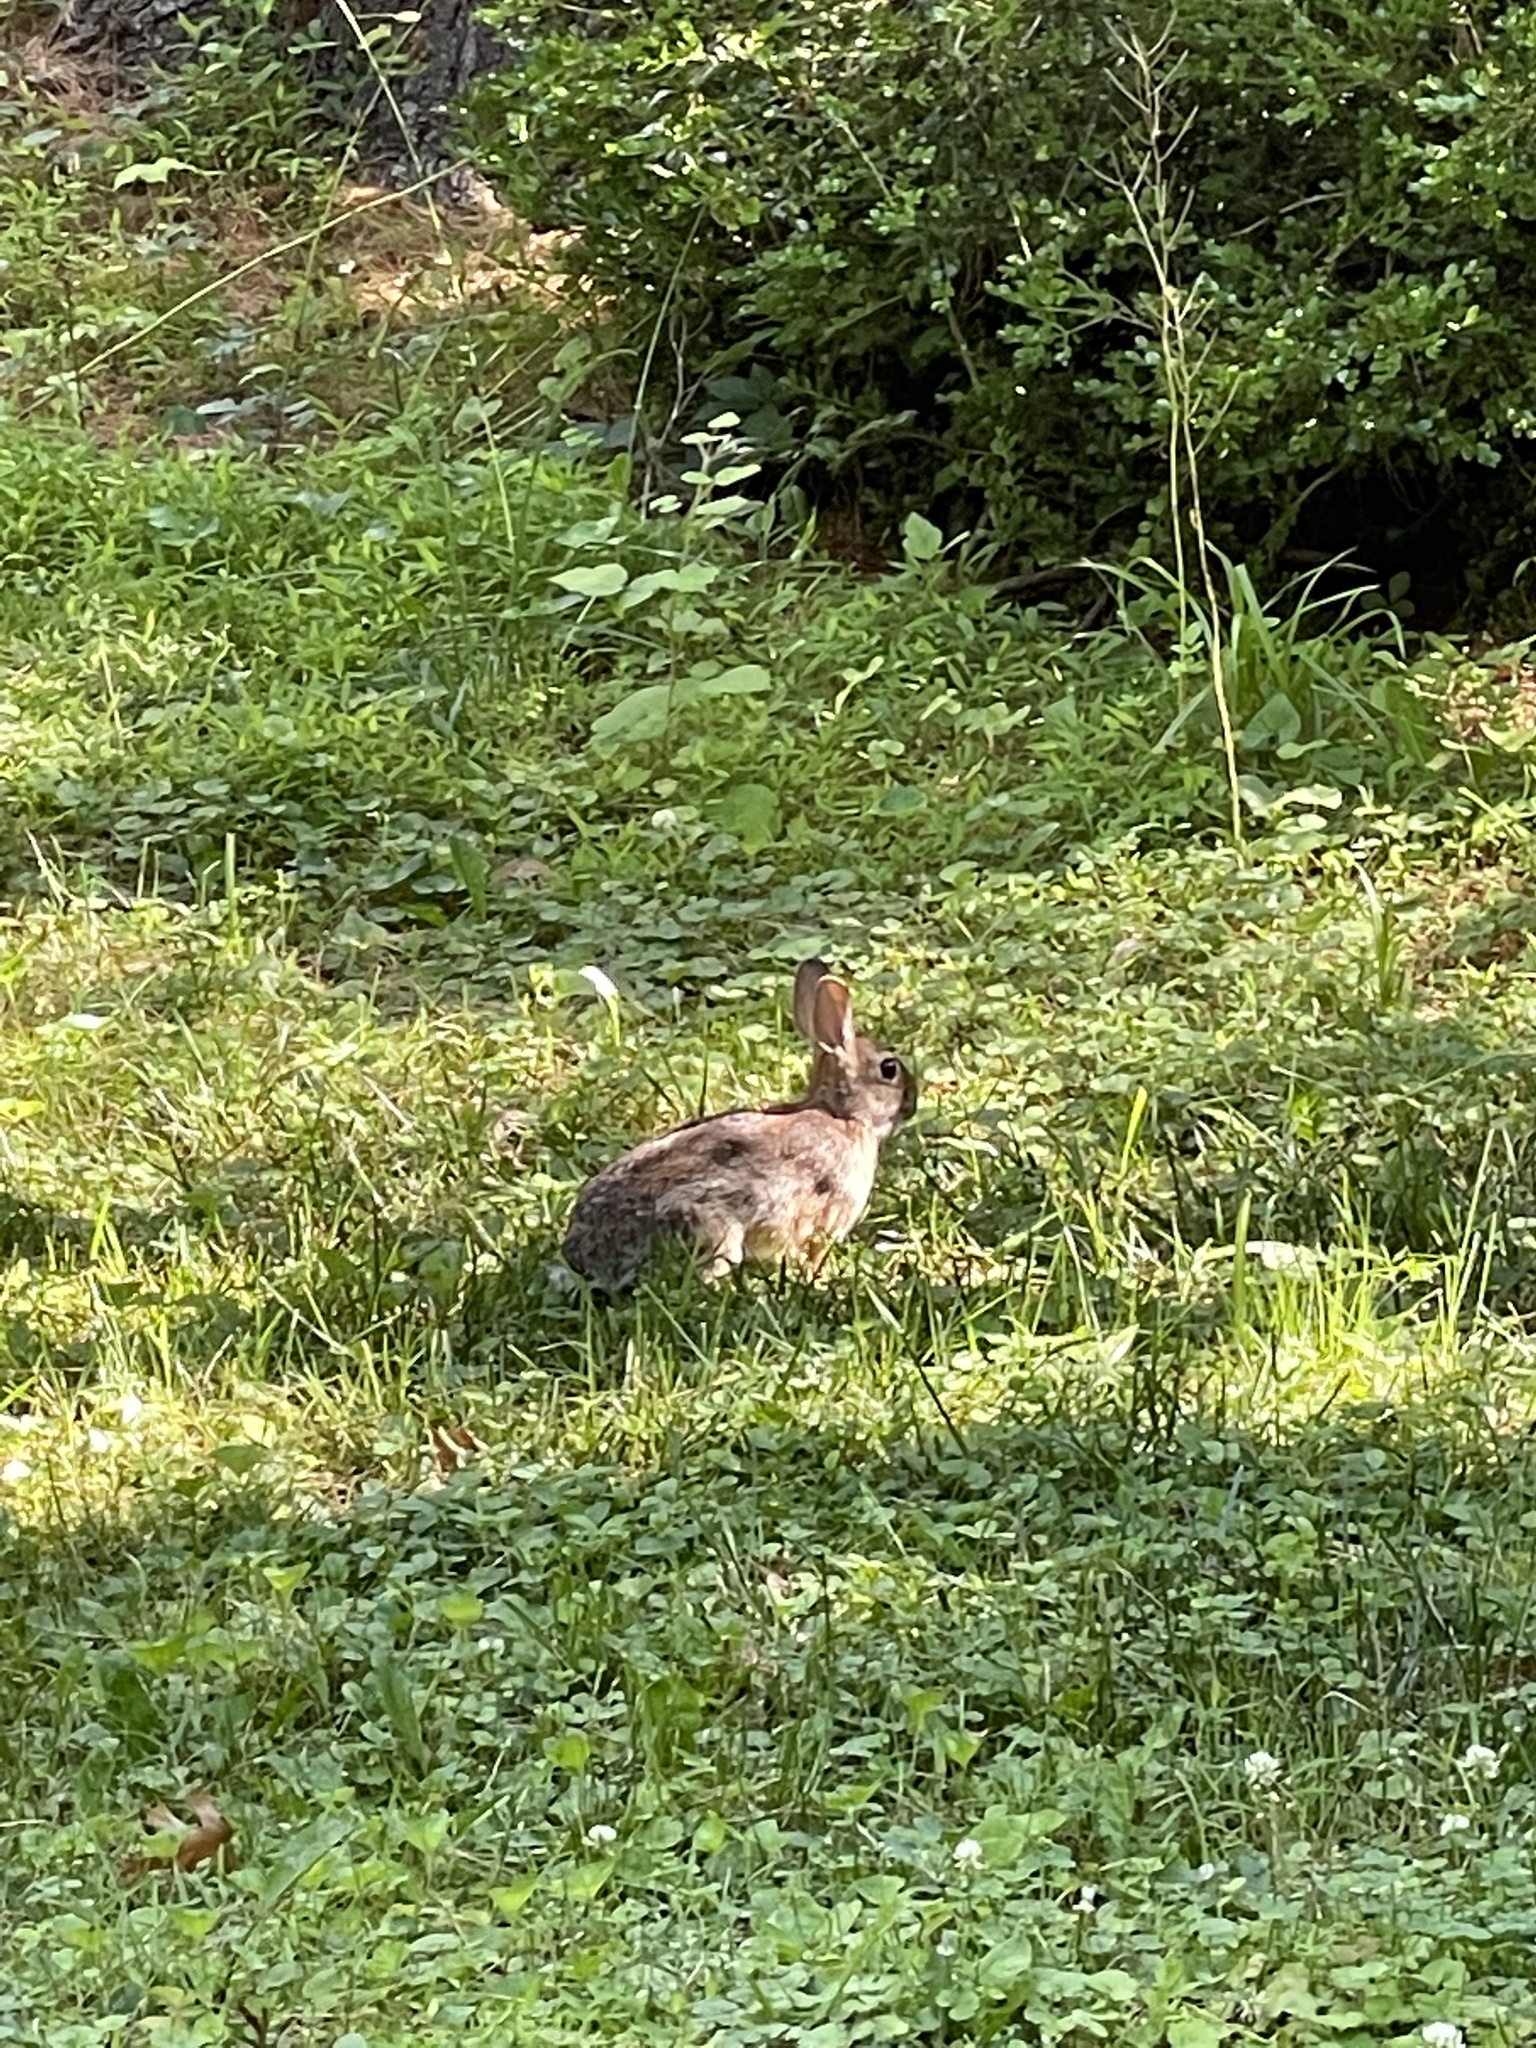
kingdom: Animalia
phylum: Chordata
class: Mammalia
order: Lagomorpha
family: Leporidae
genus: Sylvilagus
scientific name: Sylvilagus floridanus
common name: Eastern cottontail
